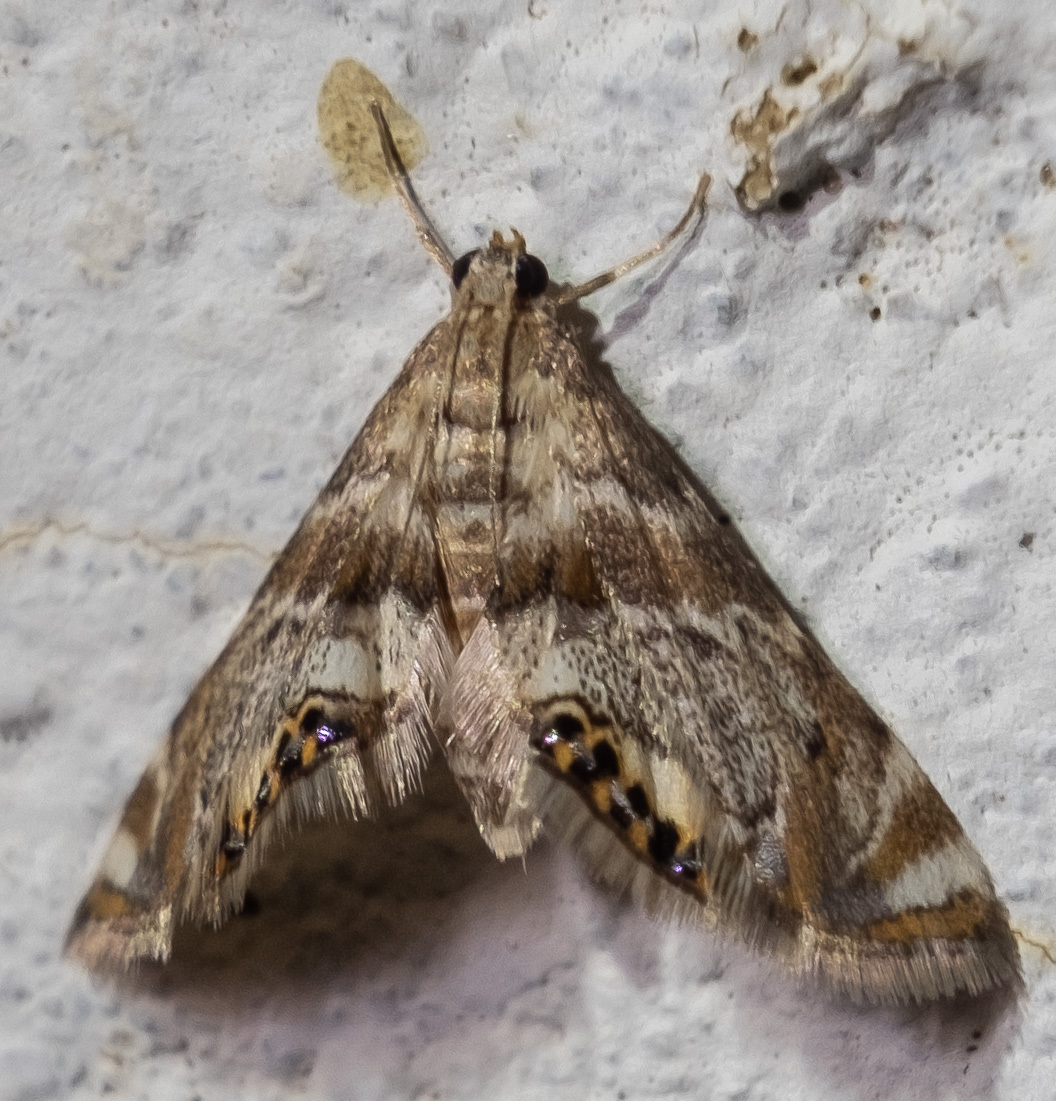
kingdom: Animalia
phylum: Arthropoda
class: Insecta
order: Lepidoptera
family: Crambidae
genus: Petrophila
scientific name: Petrophila fulicalis
